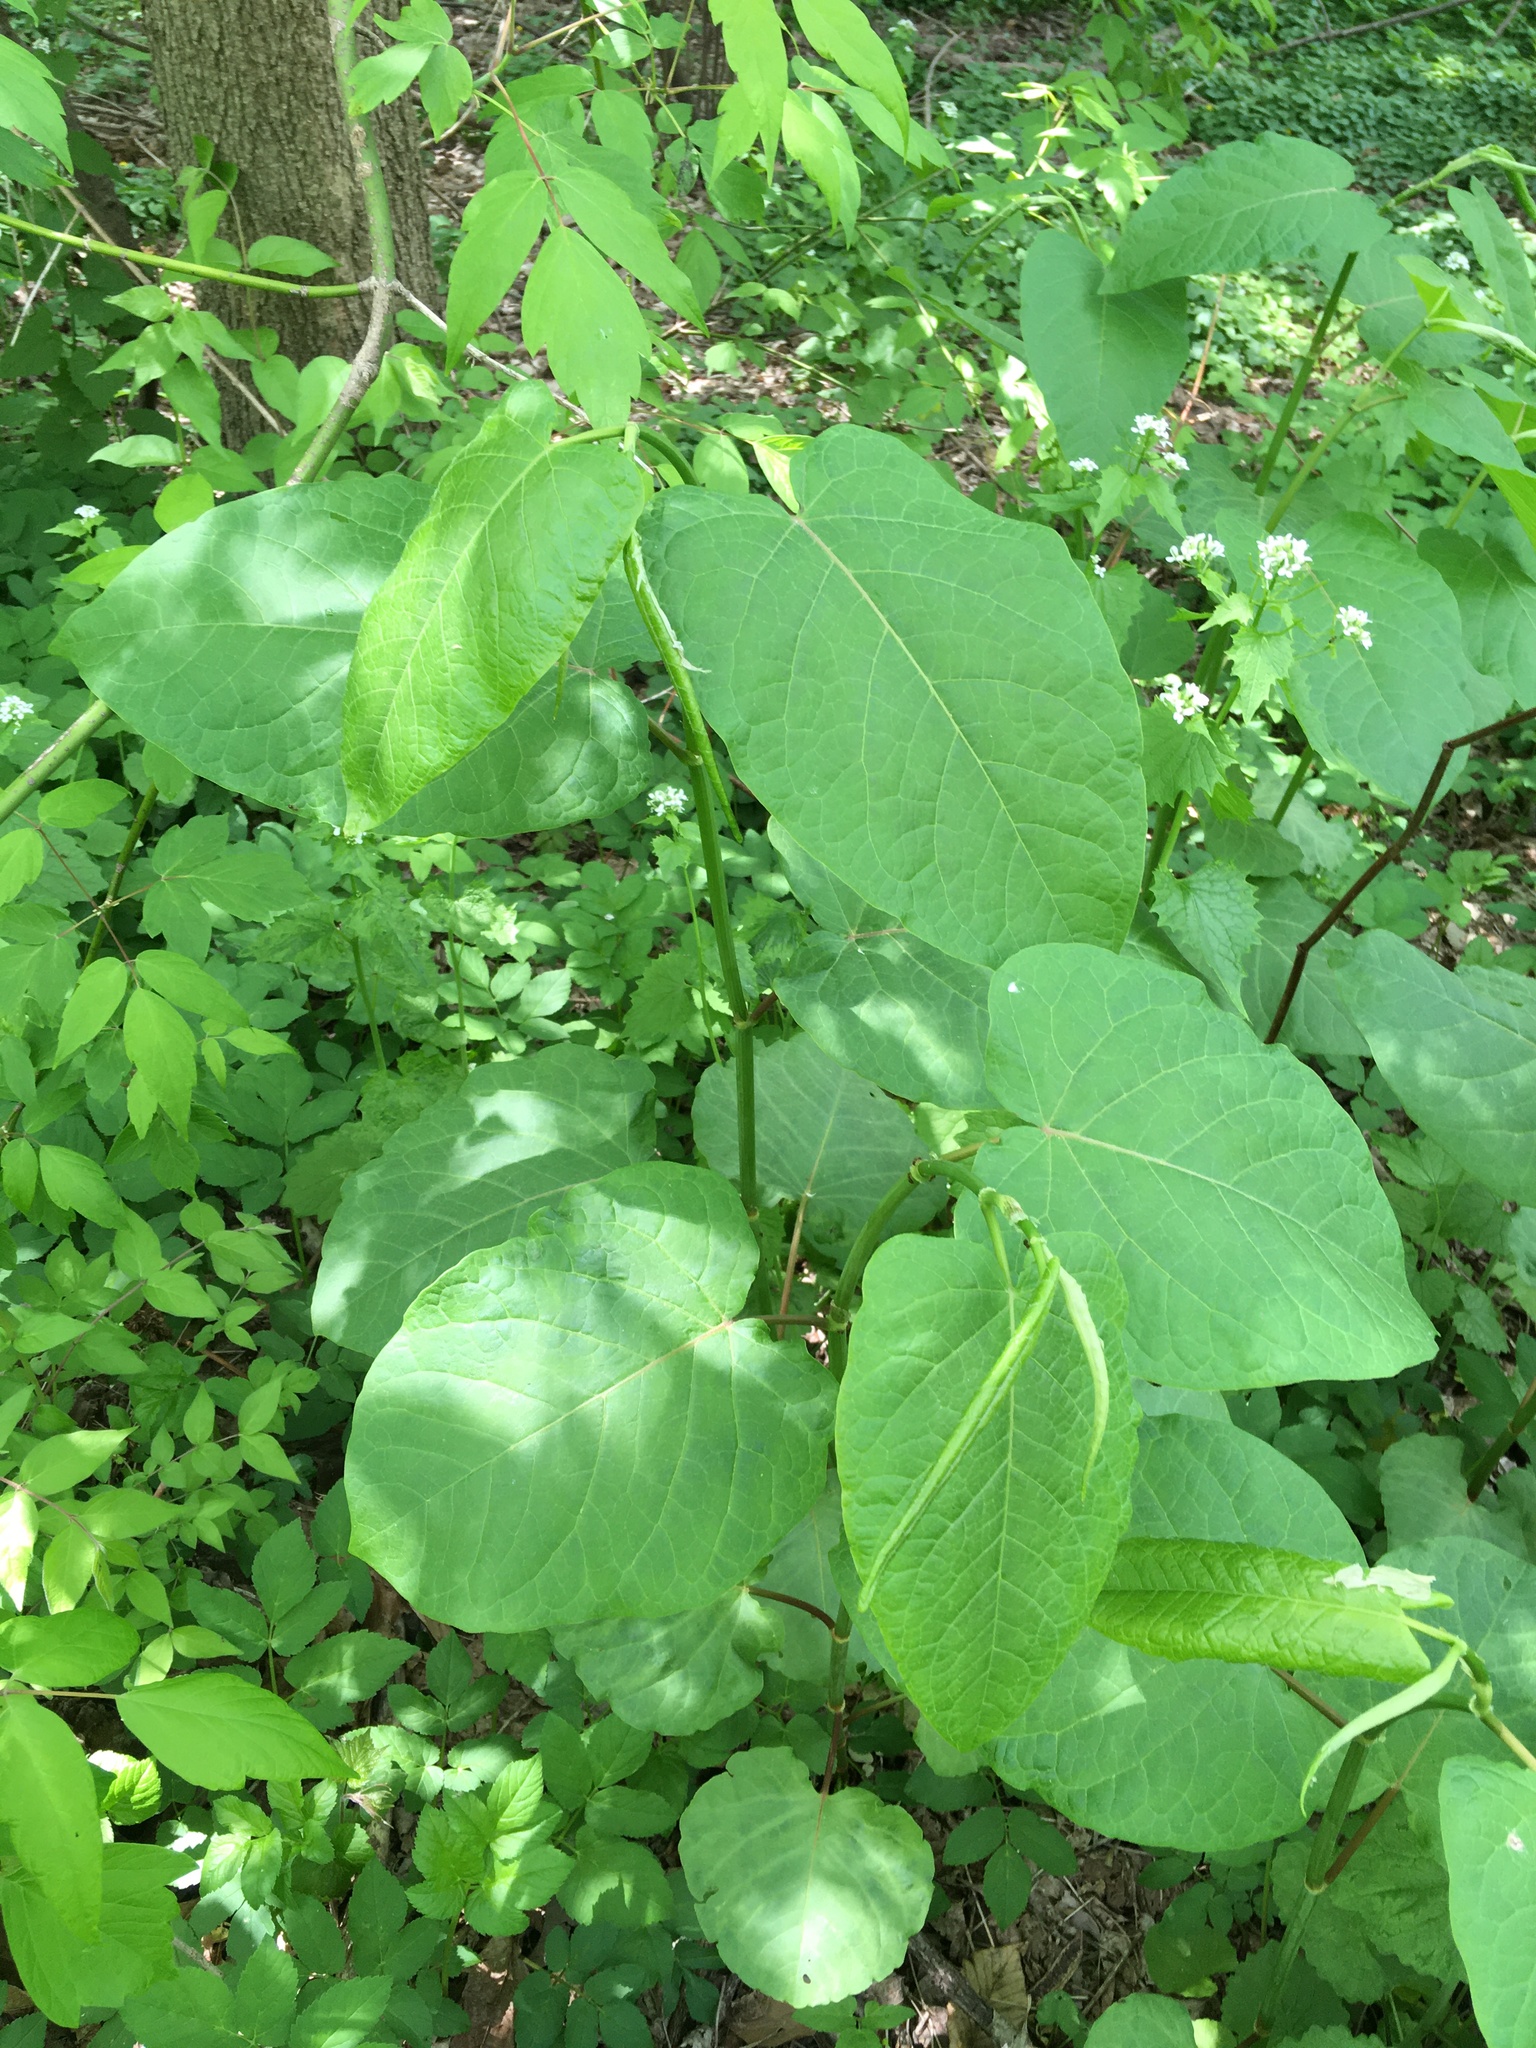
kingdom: Plantae
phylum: Tracheophyta
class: Magnoliopsida
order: Caryophyllales
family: Polygonaceae
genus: Reynoutria
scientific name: Reynoutria sachalinensis
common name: Giant knotweed
